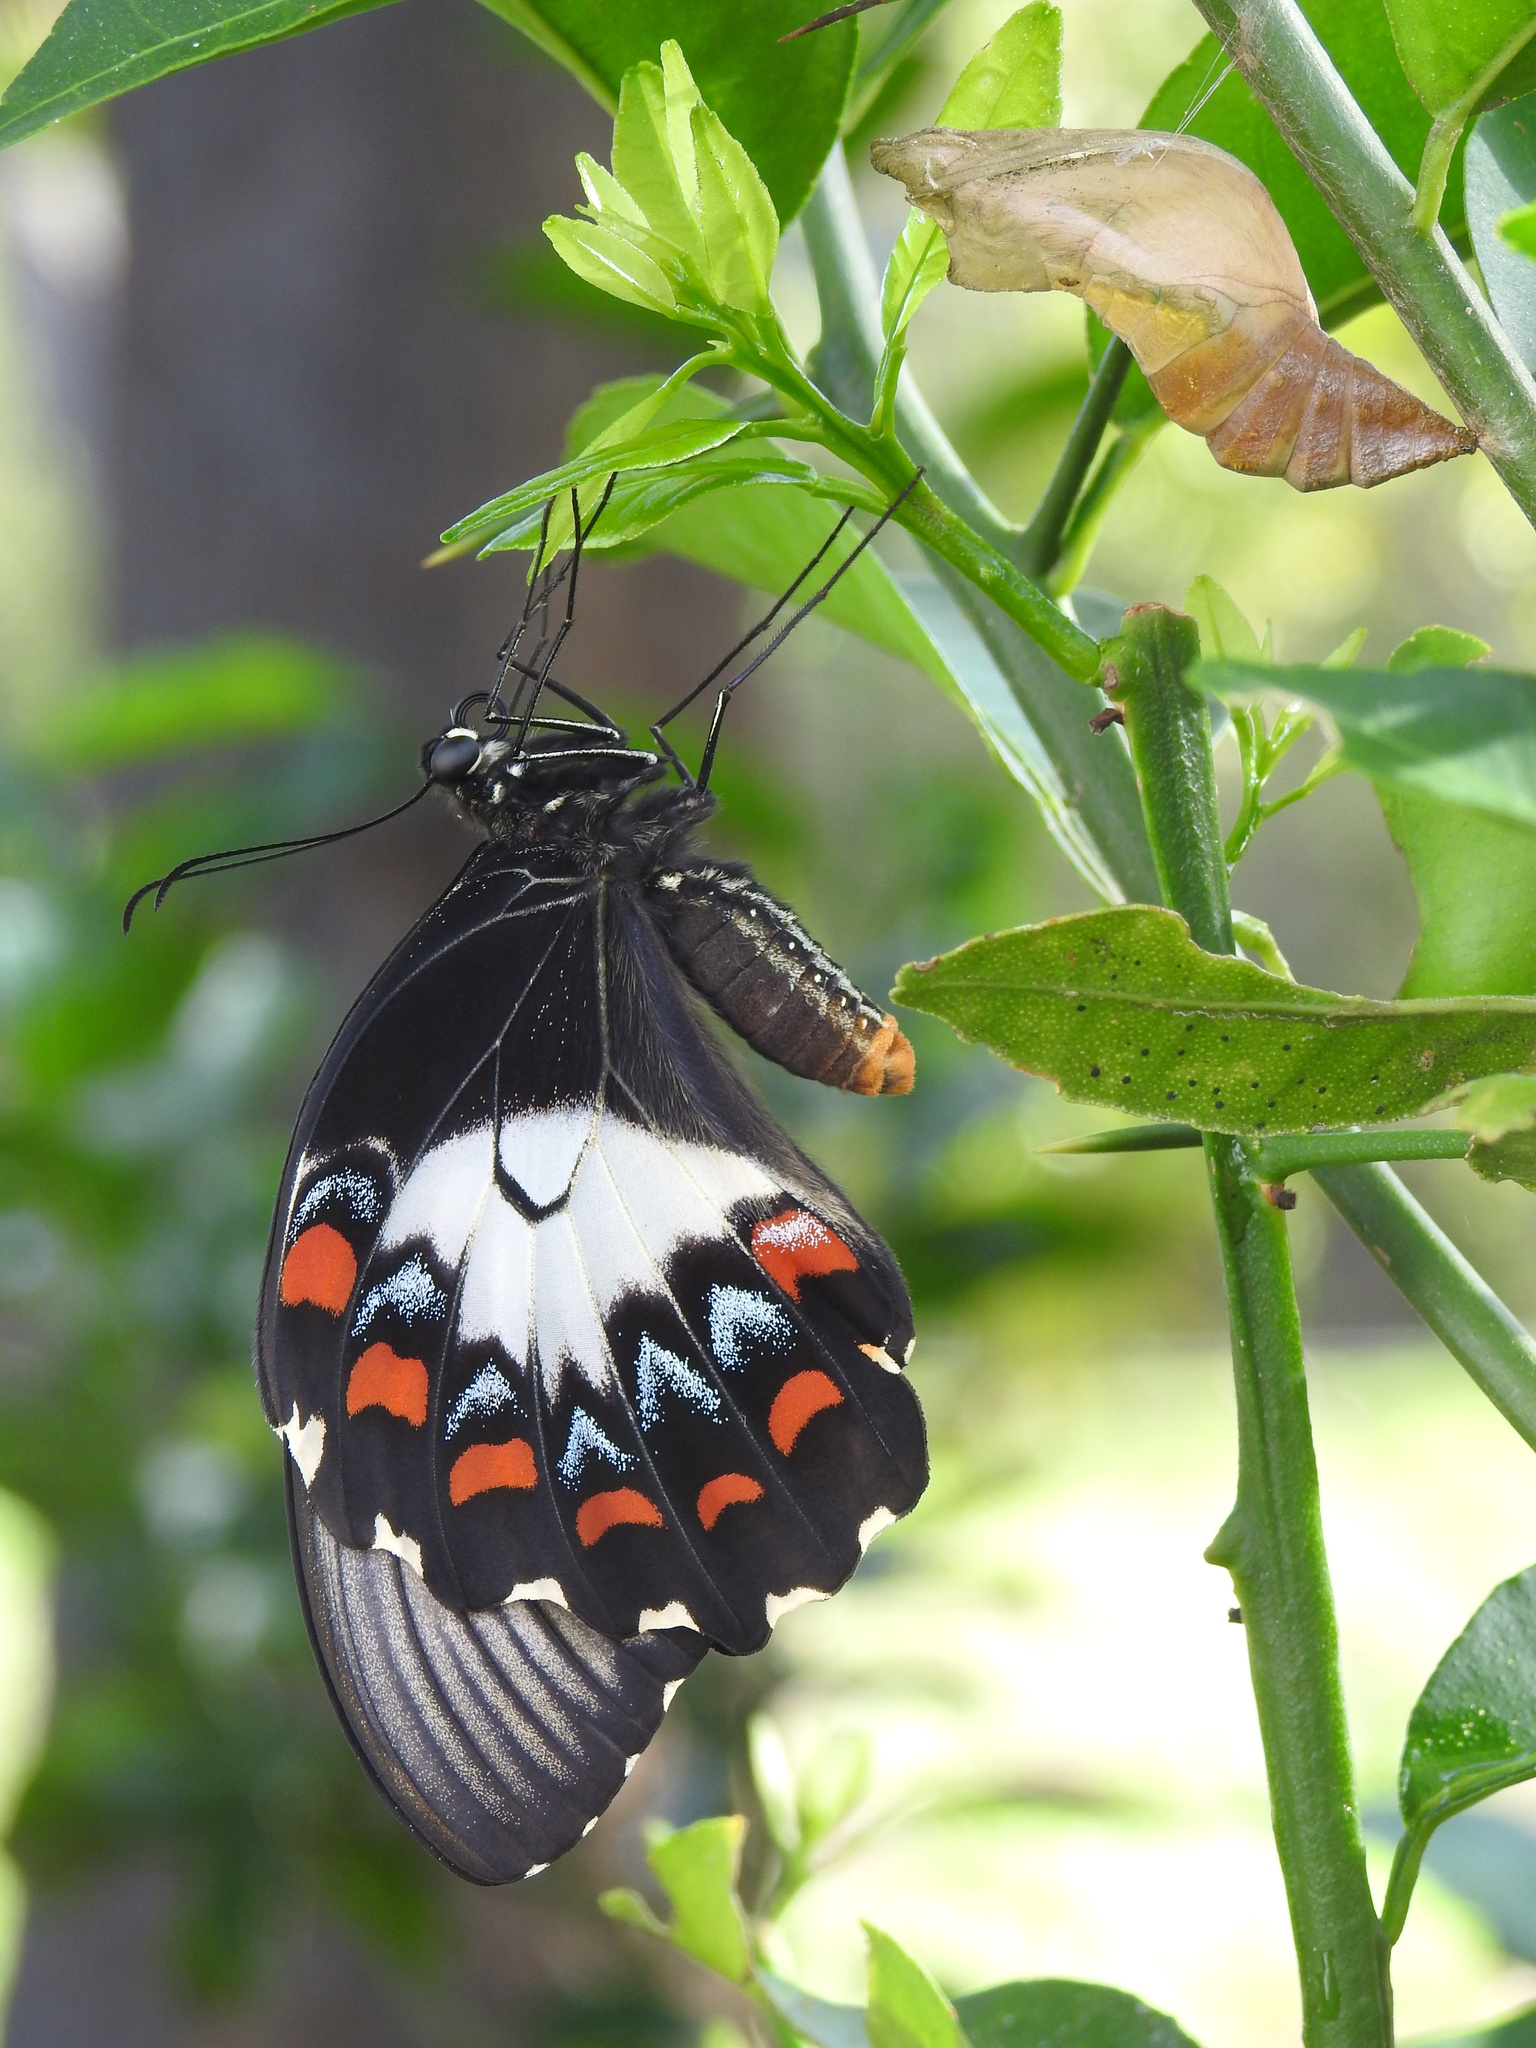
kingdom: Animalia
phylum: Arthropoda
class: Insecta
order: Lepidoptera
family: Papilionidae
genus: Papilio
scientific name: Papilio aegeus
